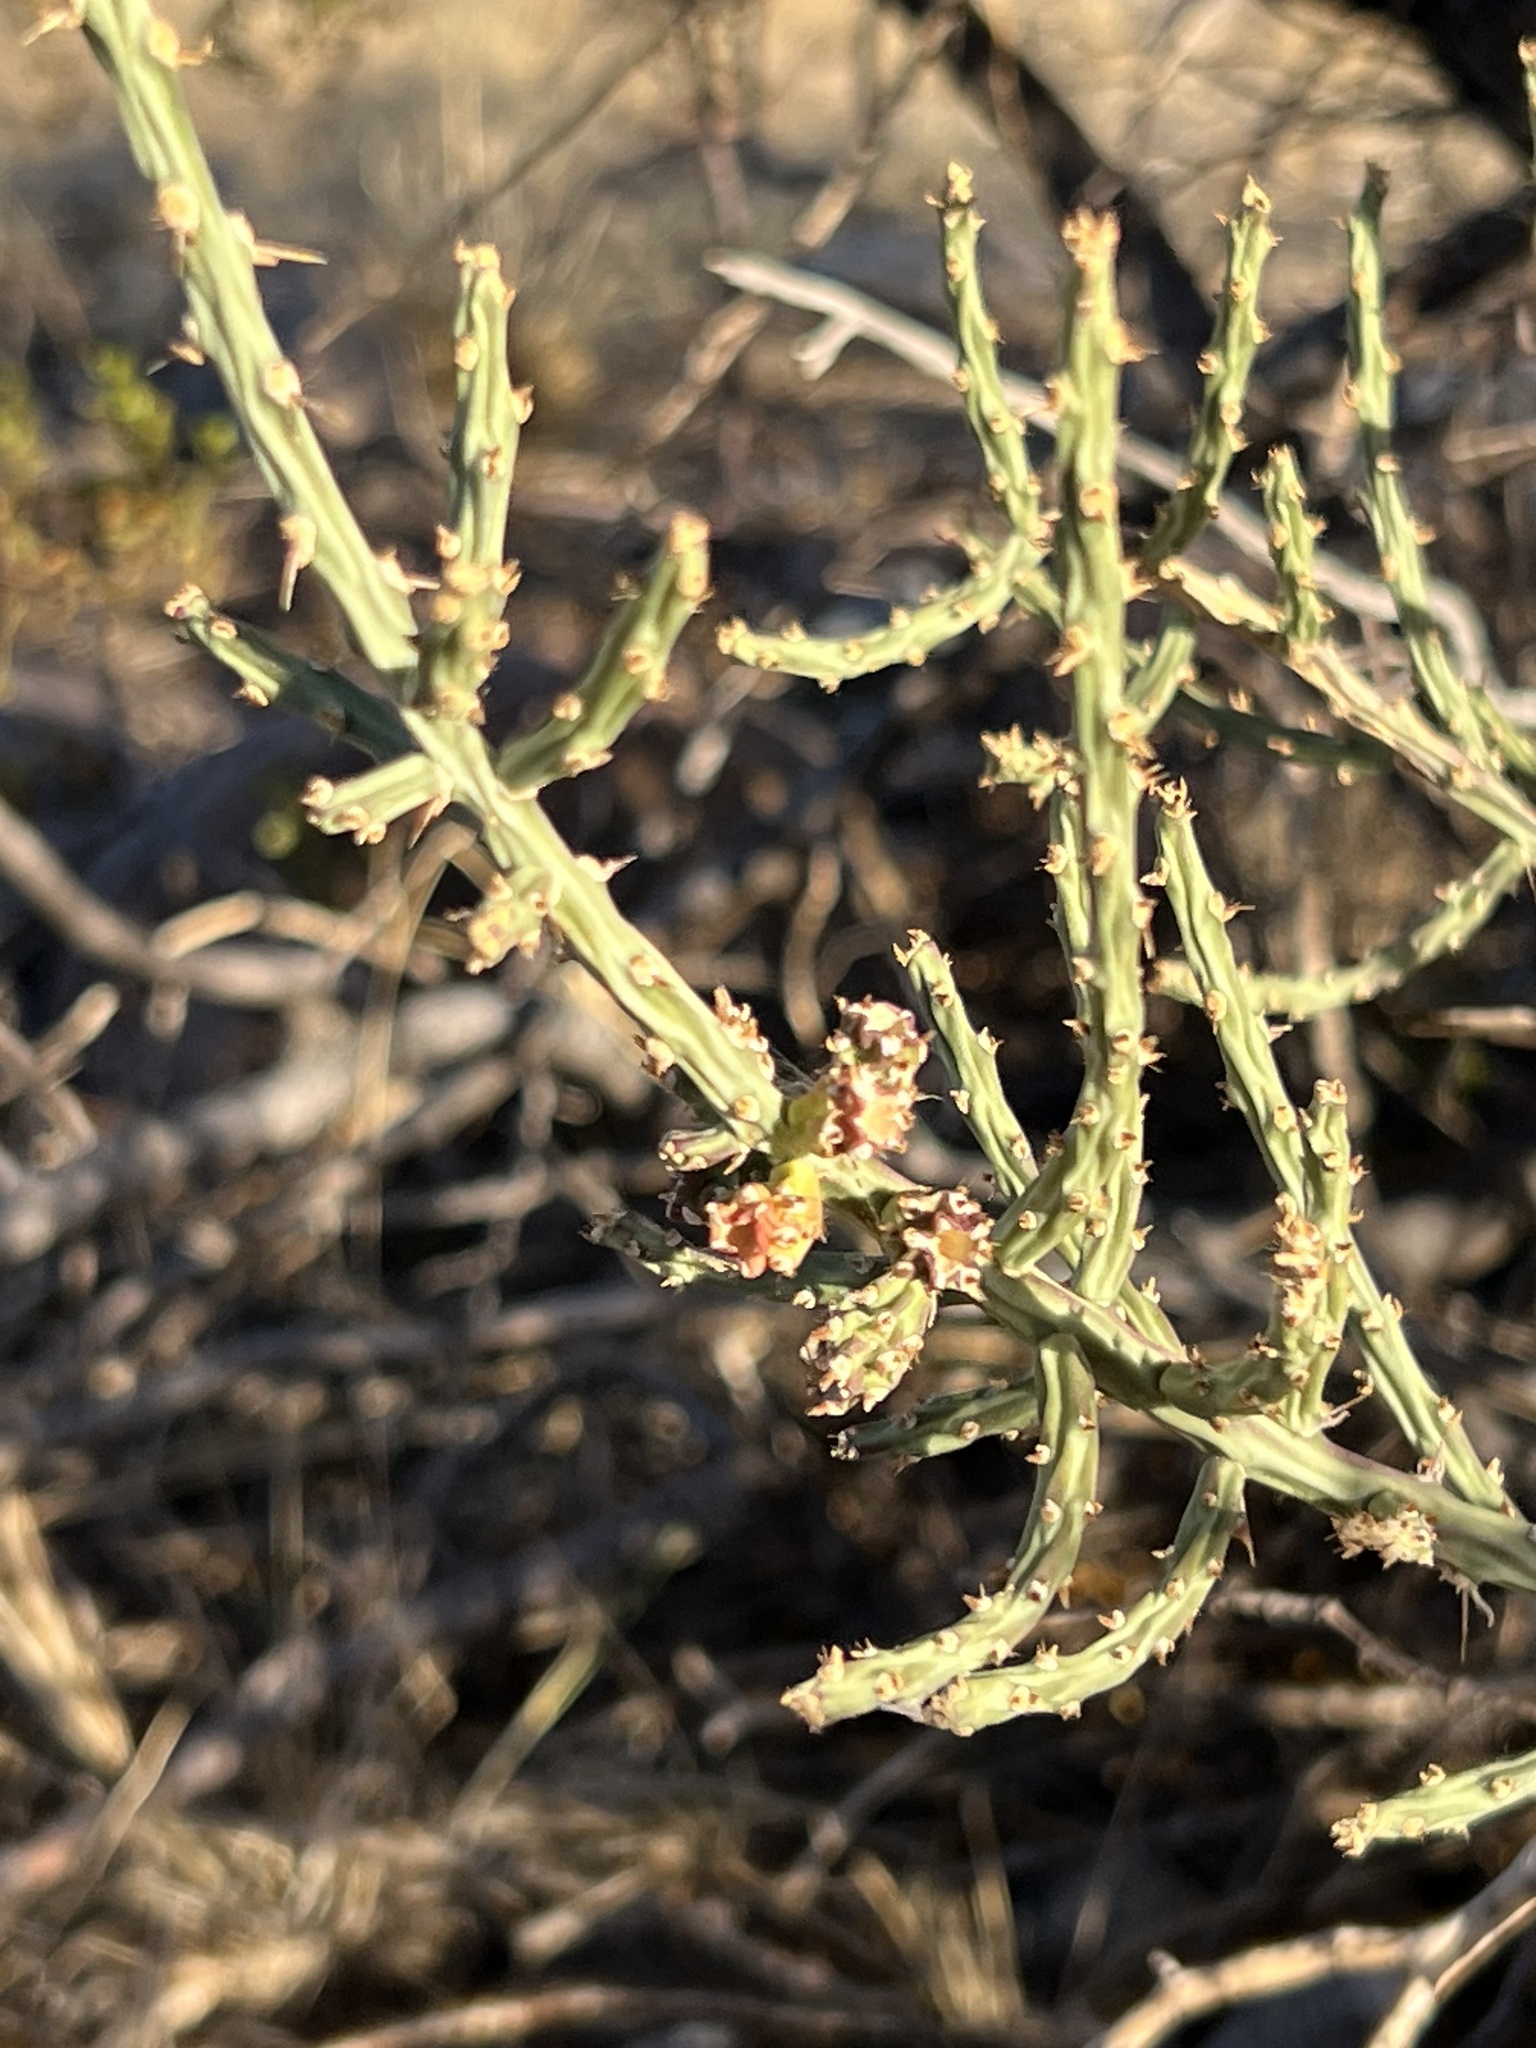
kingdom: Plantae
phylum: Tracheophyta
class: Magnoliopsida
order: Caryophyllales
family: Cactaceae
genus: Cylindropuntia
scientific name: Cylindropuntia leptocaulis
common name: Christmas cactus
